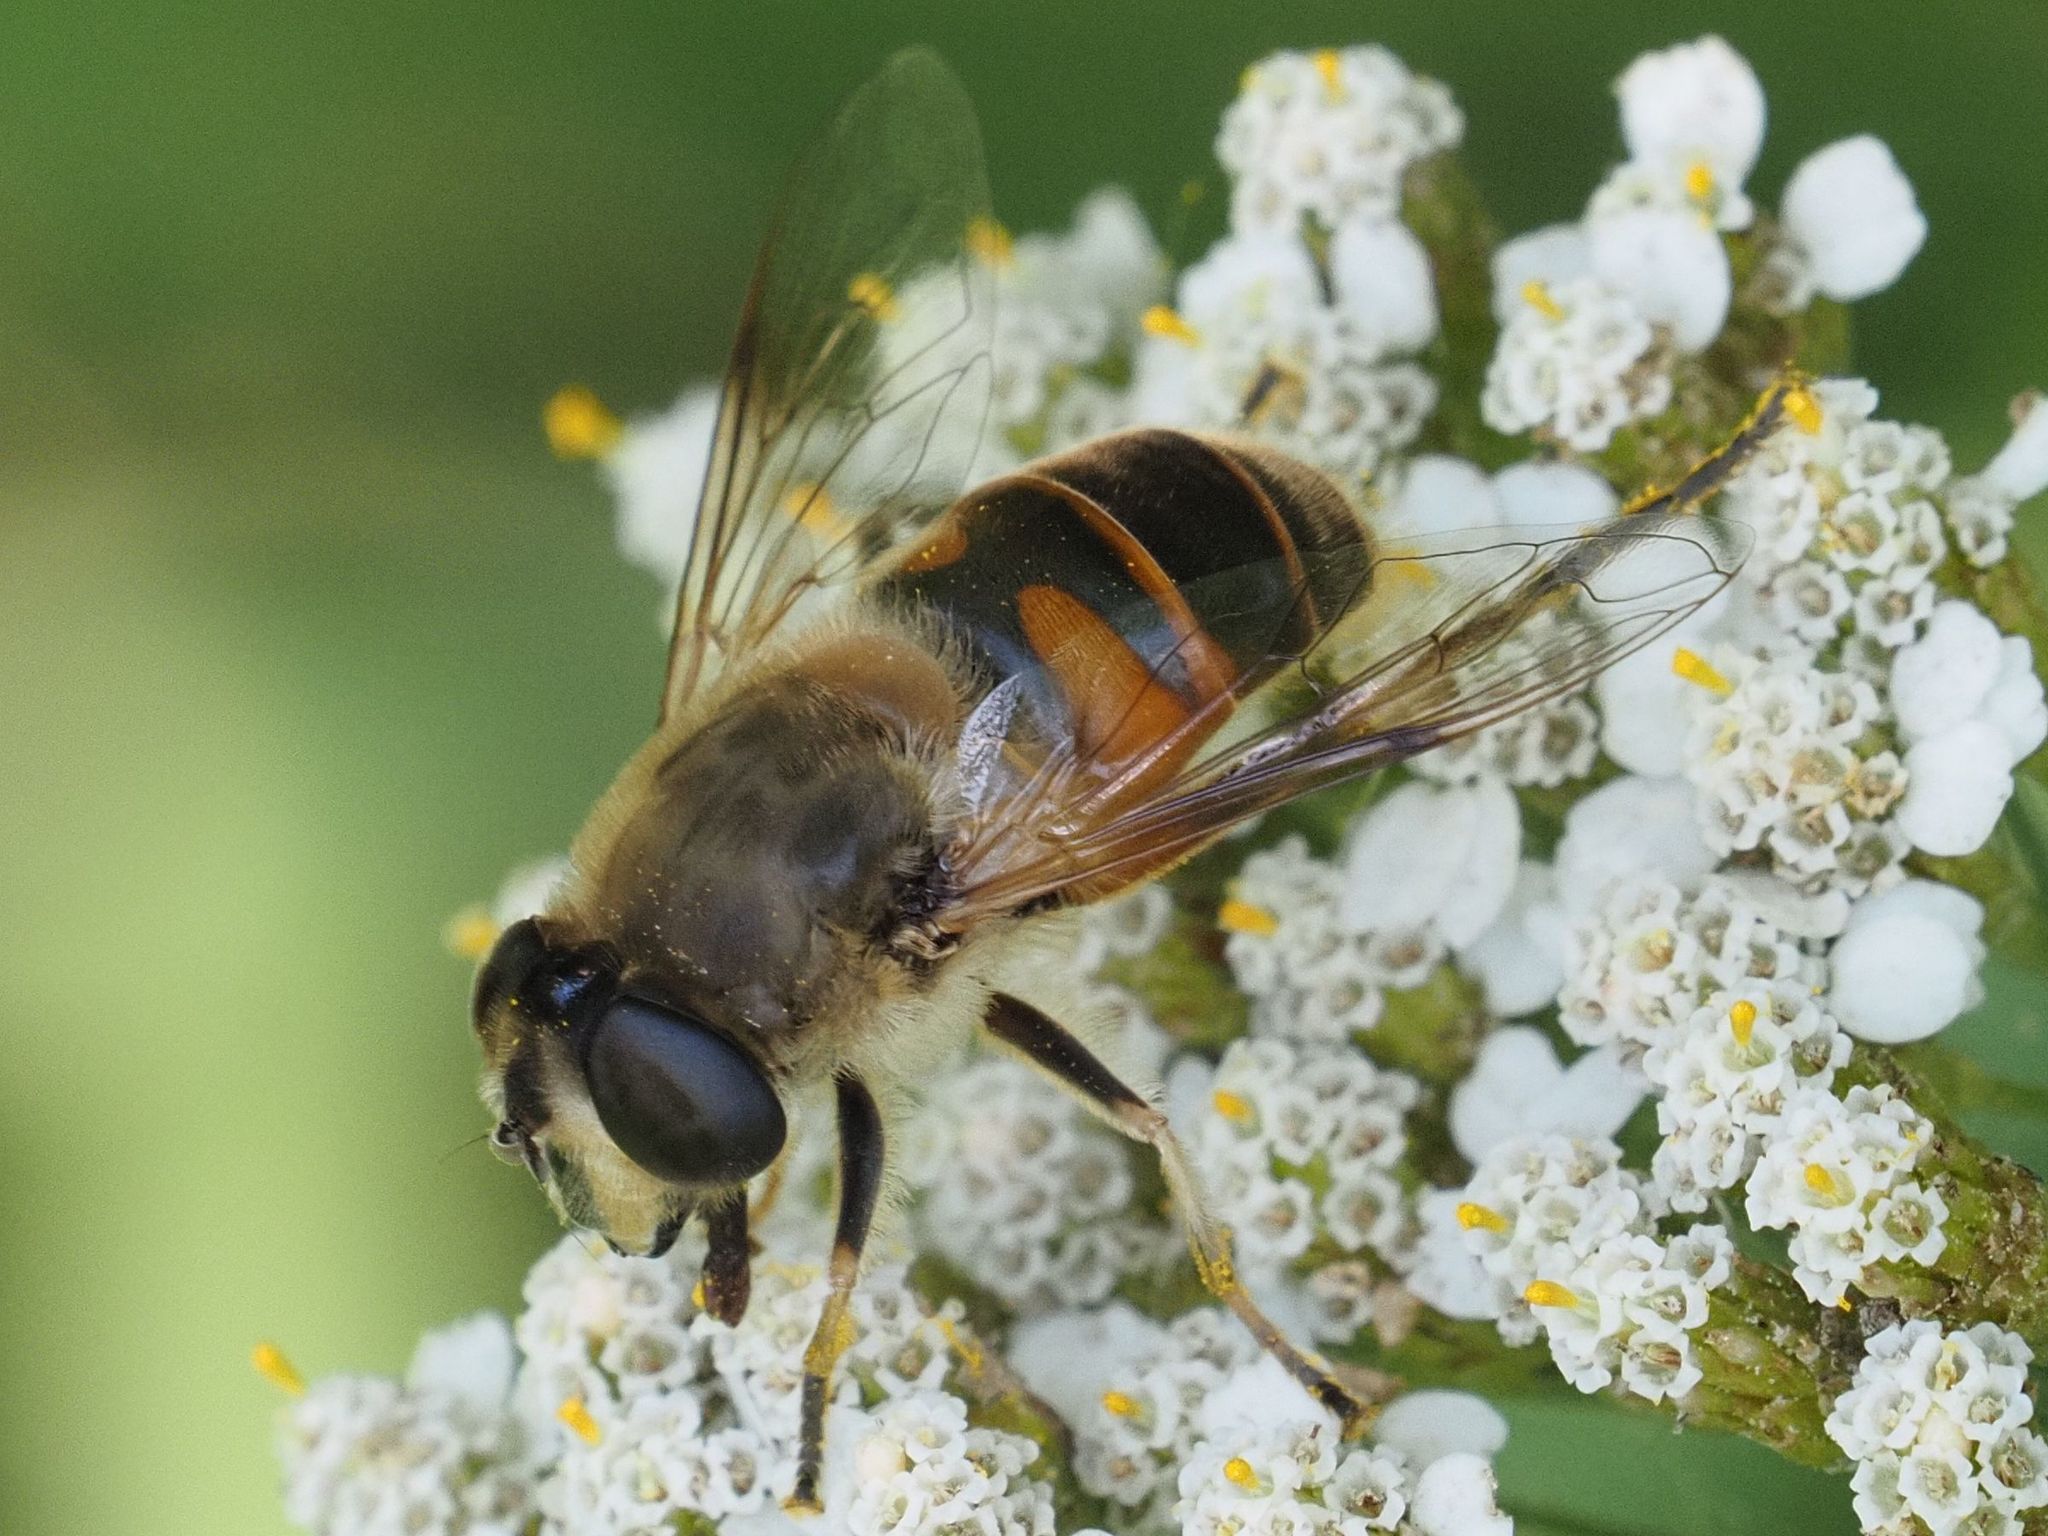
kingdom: Animalia
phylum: Arthropoda
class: Insecta
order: Diptera
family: Syrphidae
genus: Eristalis
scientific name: Eristalis tenax
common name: Drone fly
